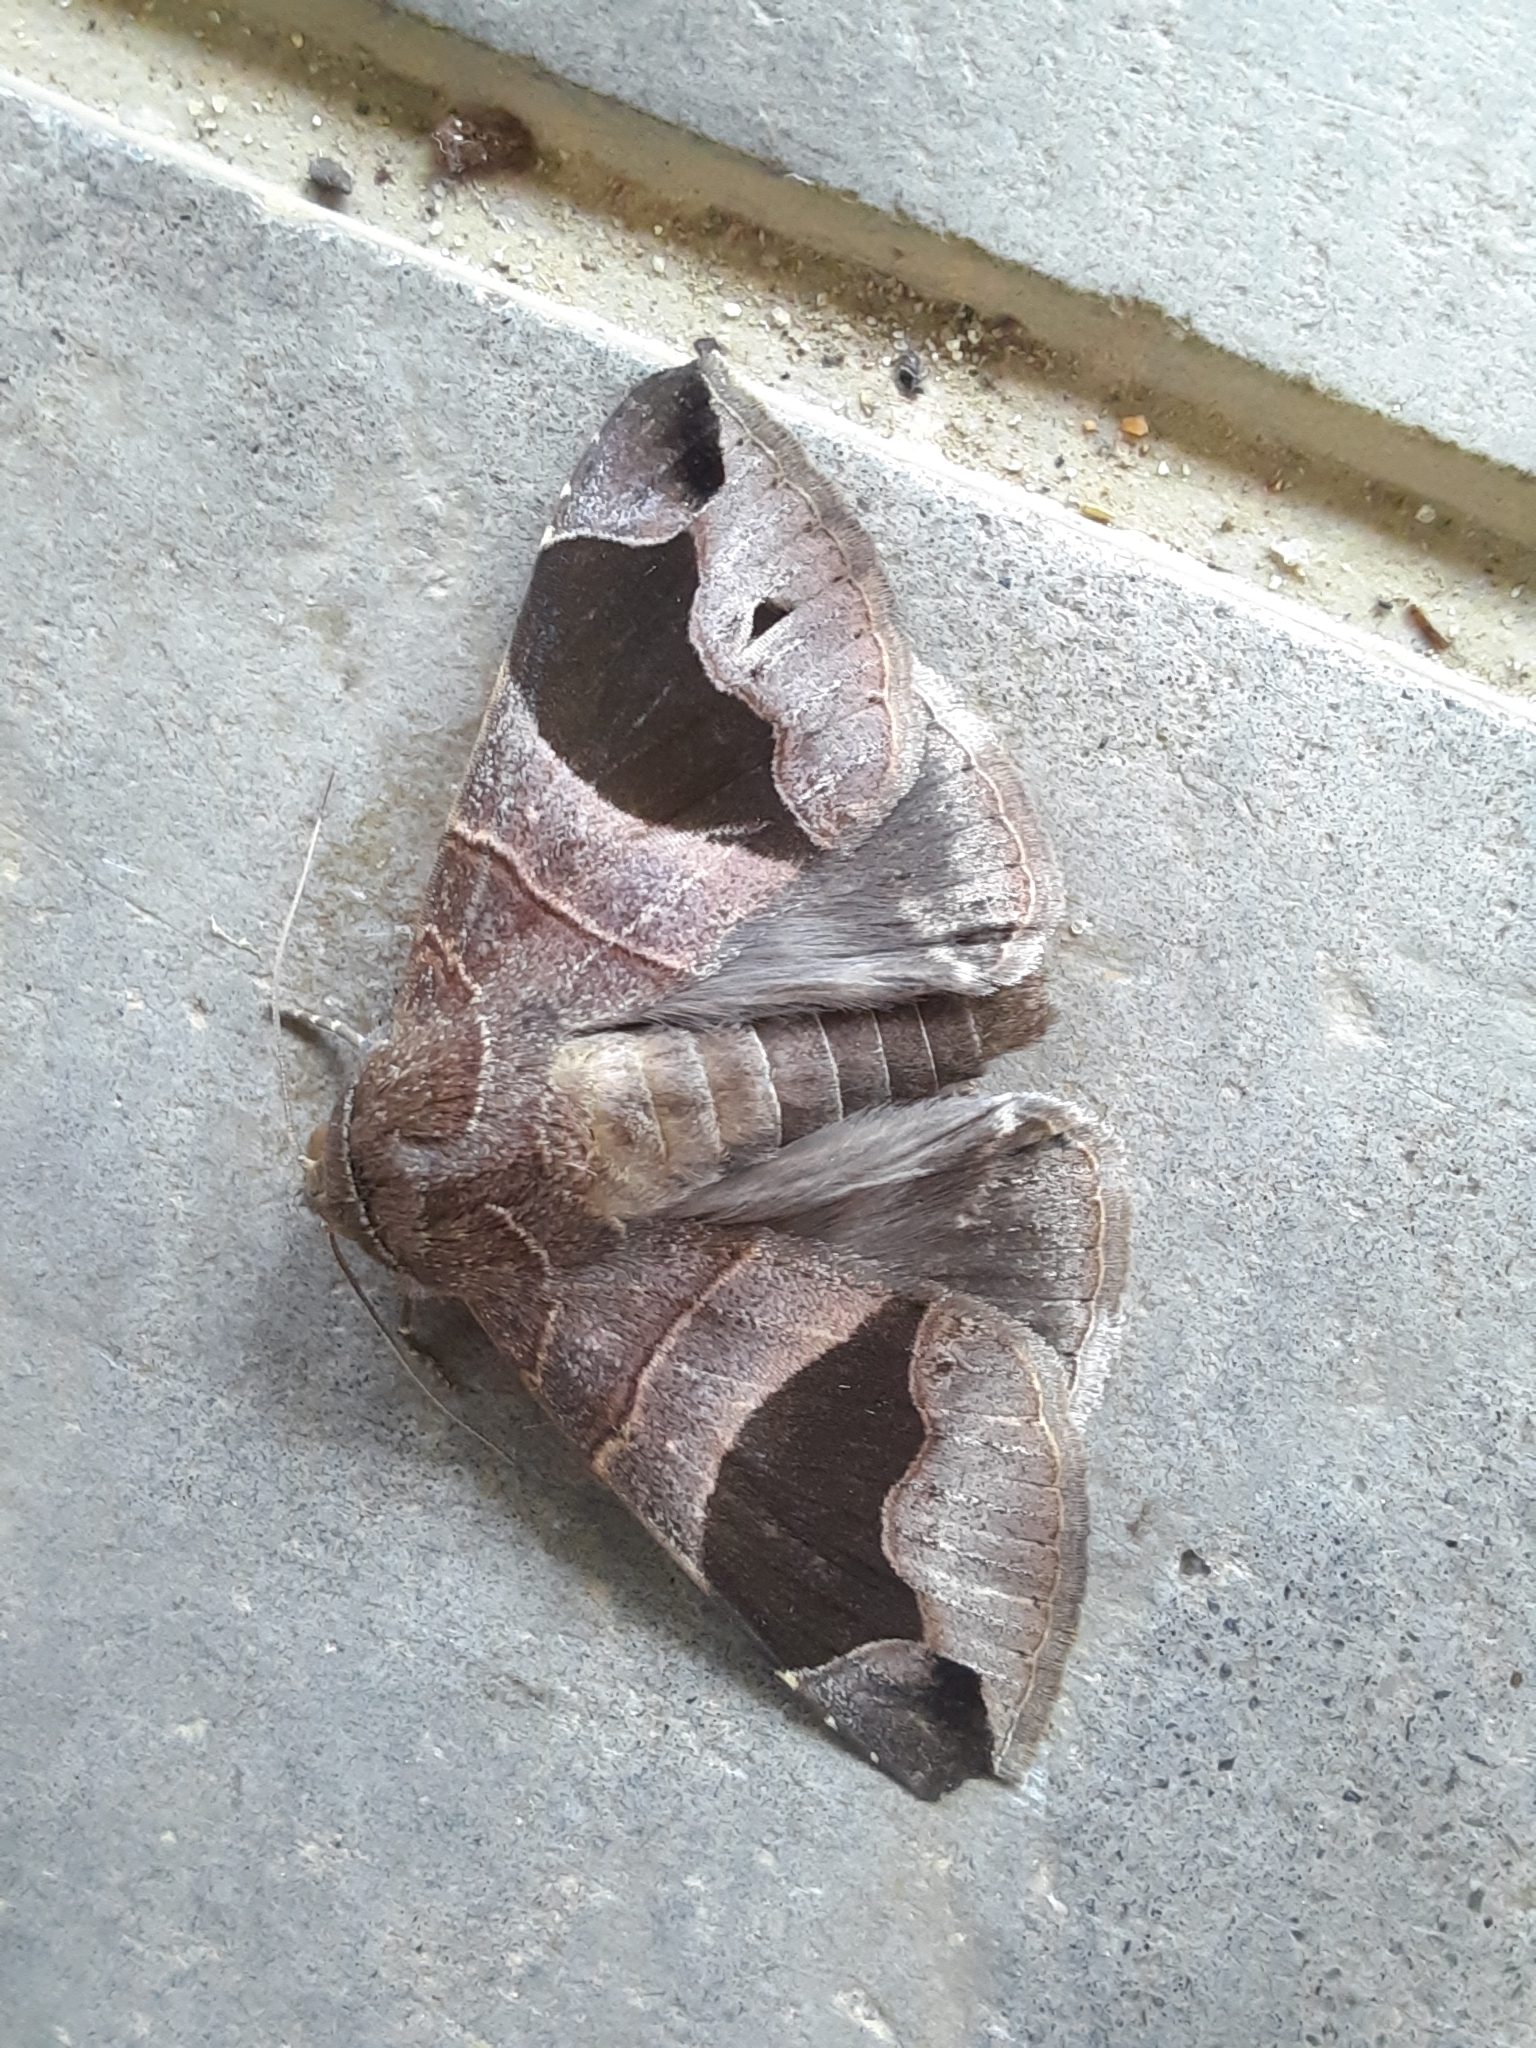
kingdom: Animalia
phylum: Arthropoda
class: Insecta
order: Lepidoptera
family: Erebidae
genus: Bastilla
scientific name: Bastilla joviana
